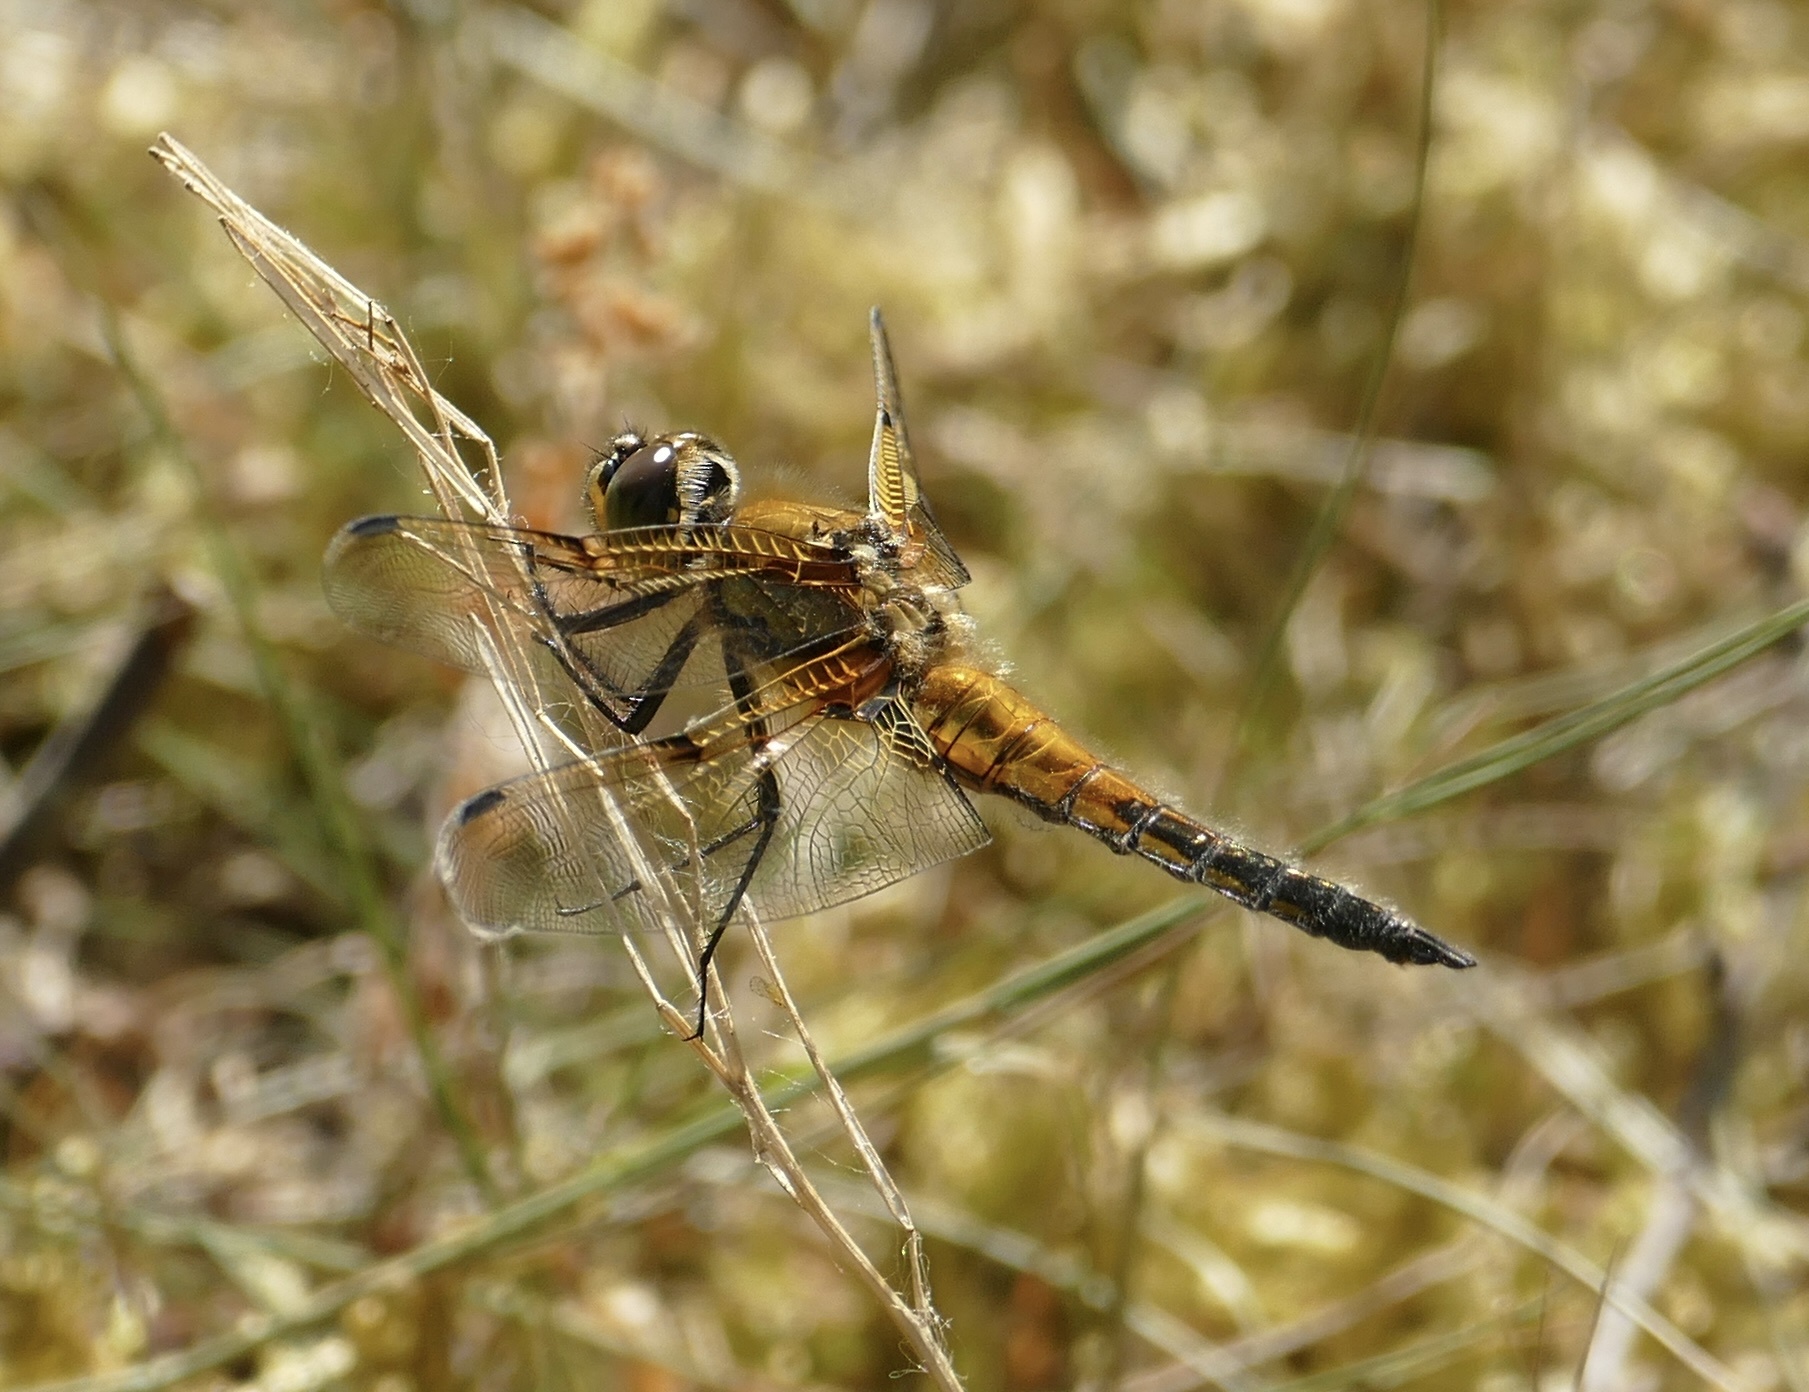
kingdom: Animalia
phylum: Arthropoda
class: Insecta
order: Odonata
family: Libellulidae
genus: Libellula
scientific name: Libellula quadrimaculata
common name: Four-spotted chaser
